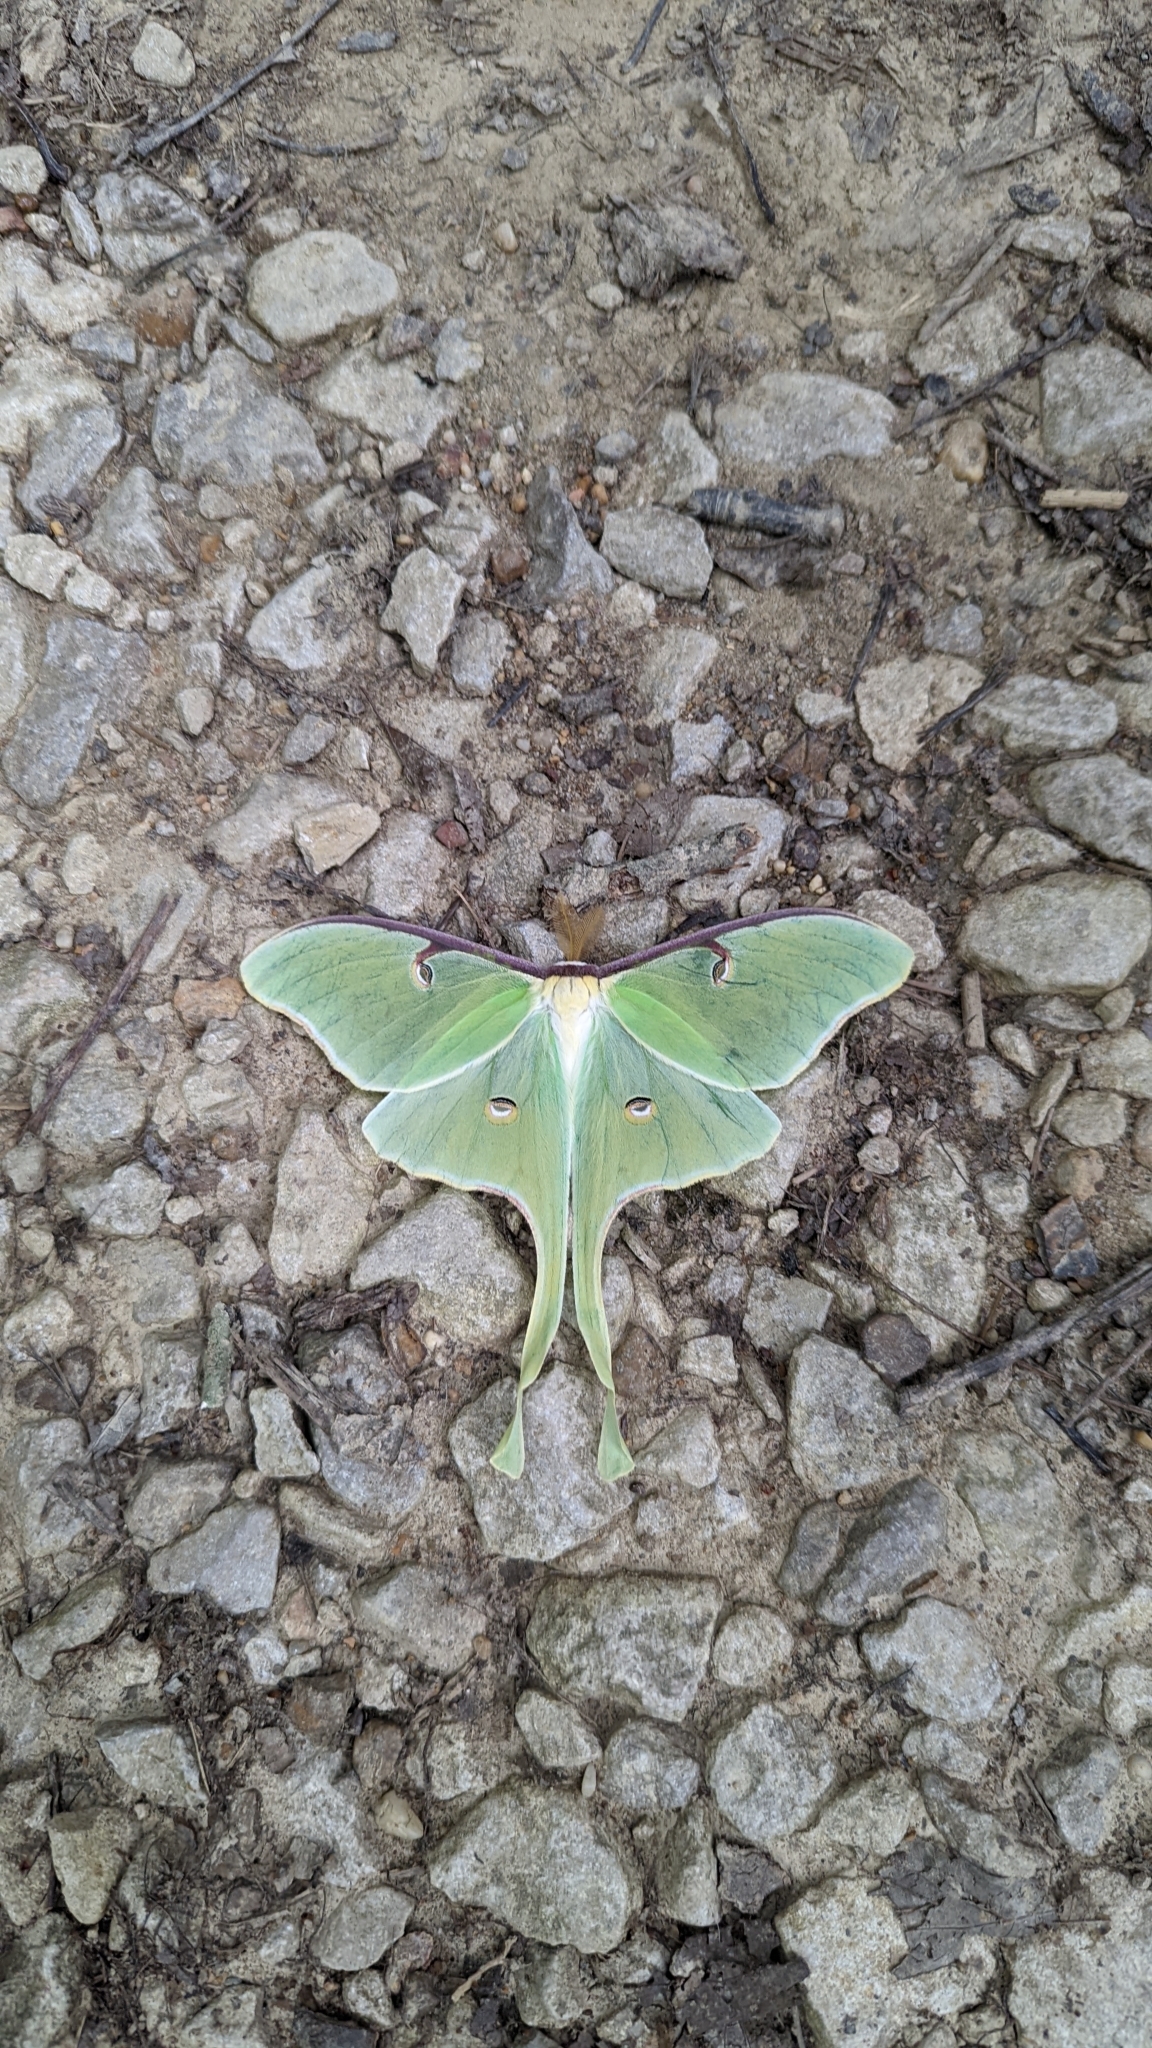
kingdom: Animalia
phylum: Arthropoda
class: Insecta
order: Lepidoptera
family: Saturniidae
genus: Actias
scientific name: Actias luna
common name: Luna moth
